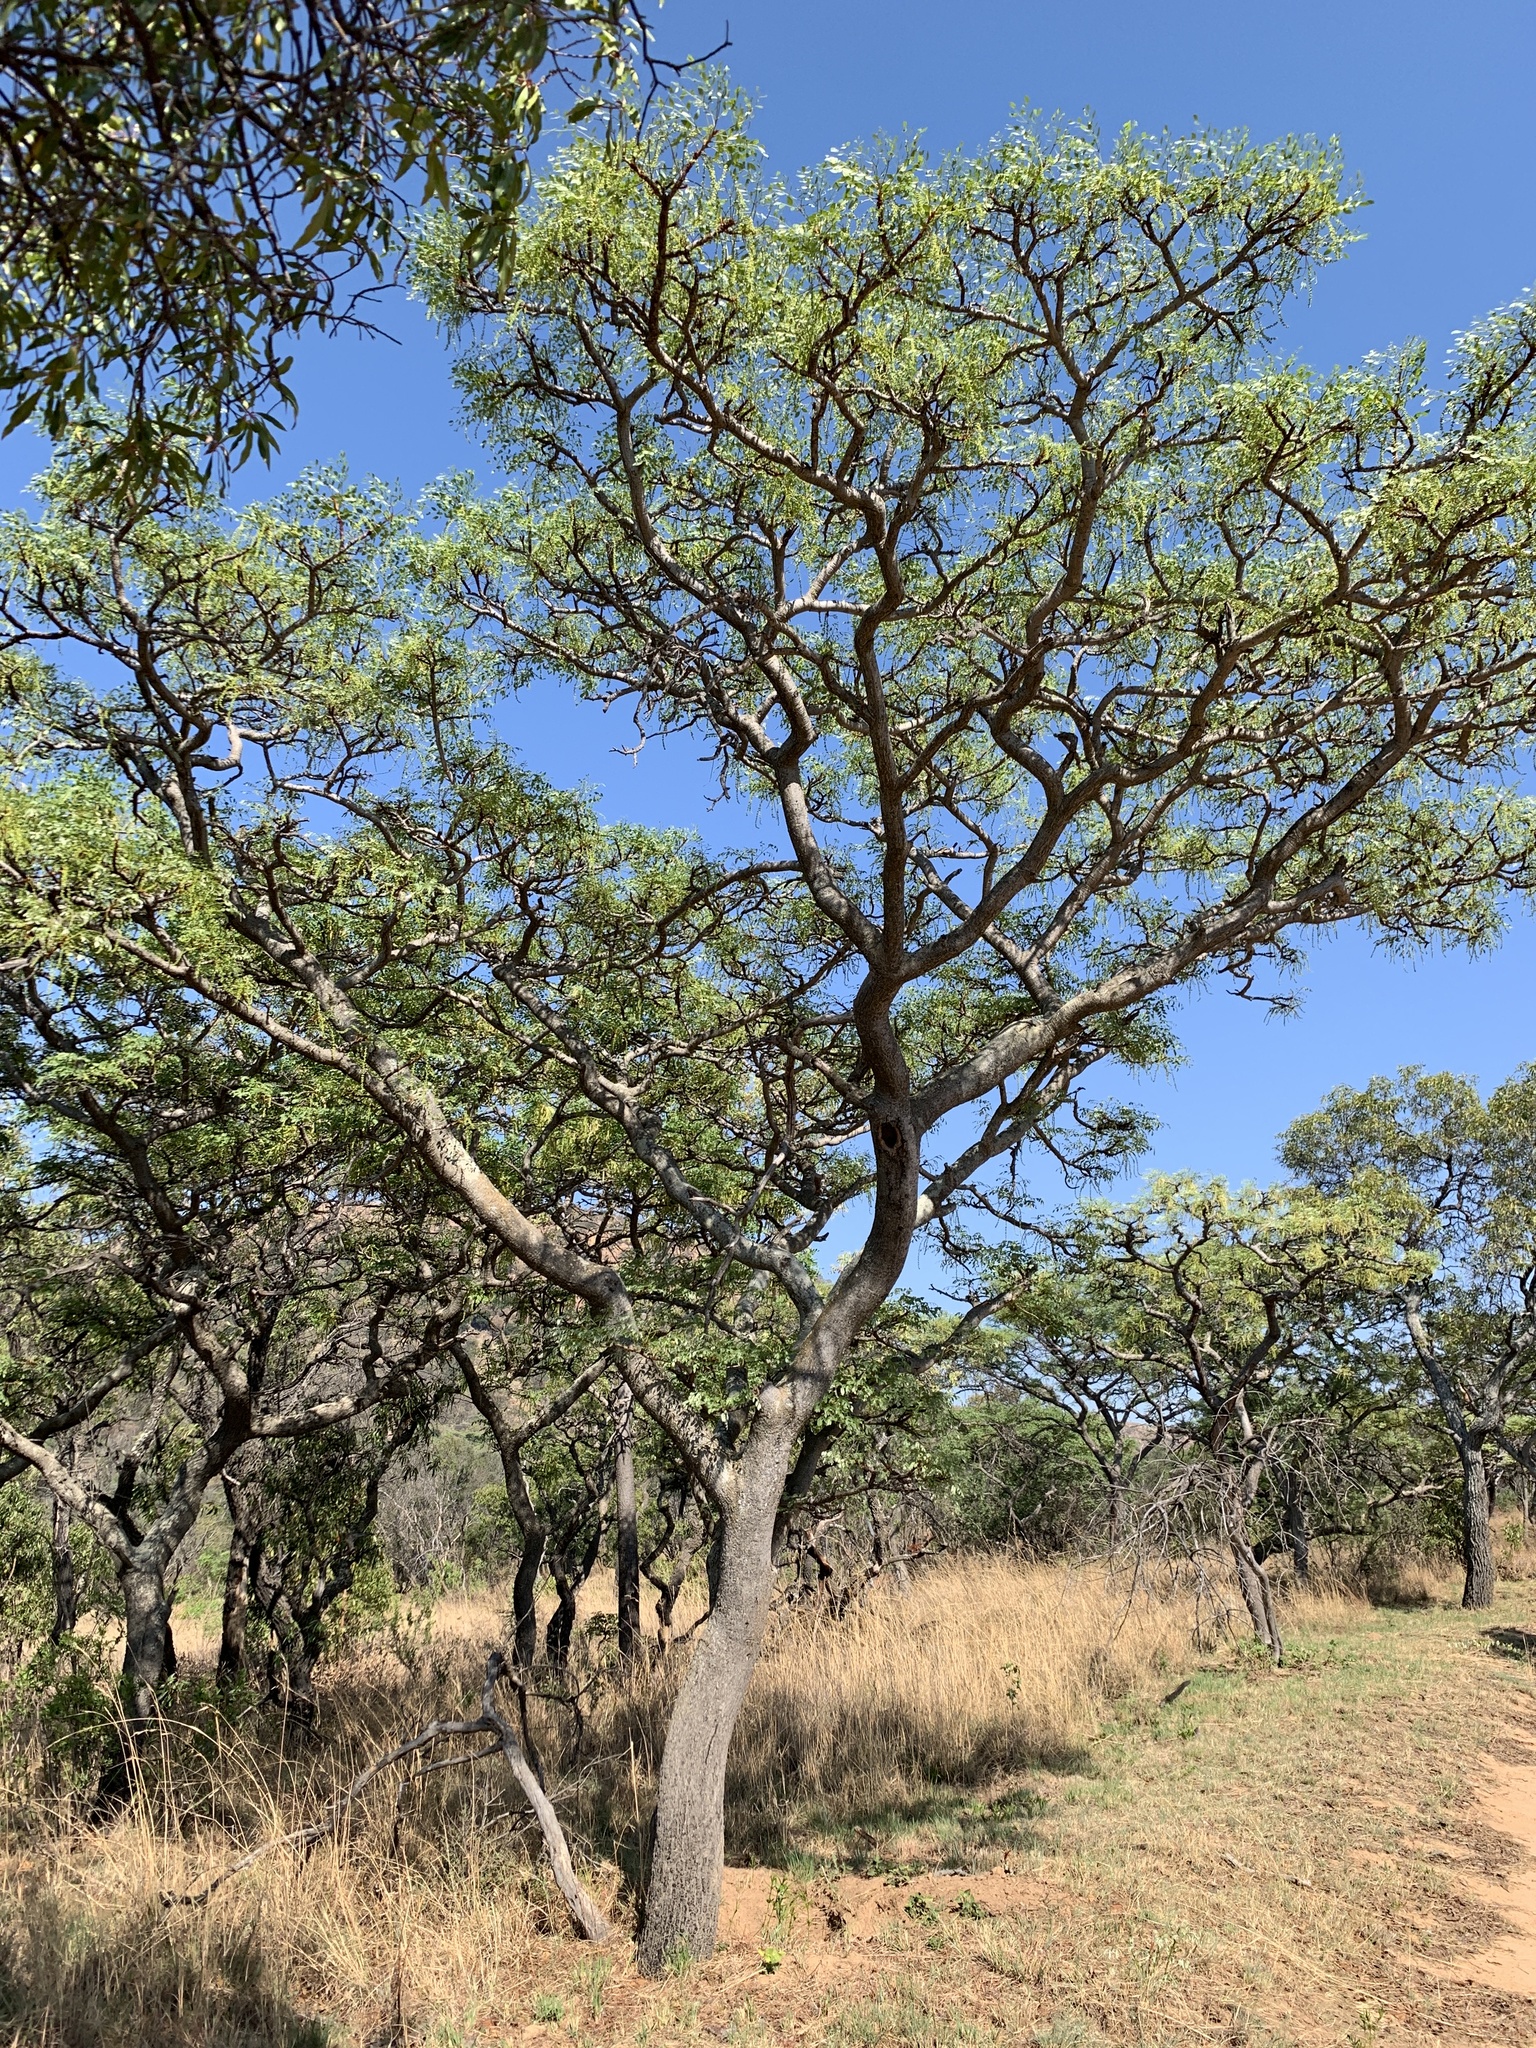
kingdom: Plantae
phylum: Tracheophyta
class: Magnoliopsida
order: Fabales
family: Fabaceae
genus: Burkea
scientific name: Burkea africana
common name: Mkalati tree
